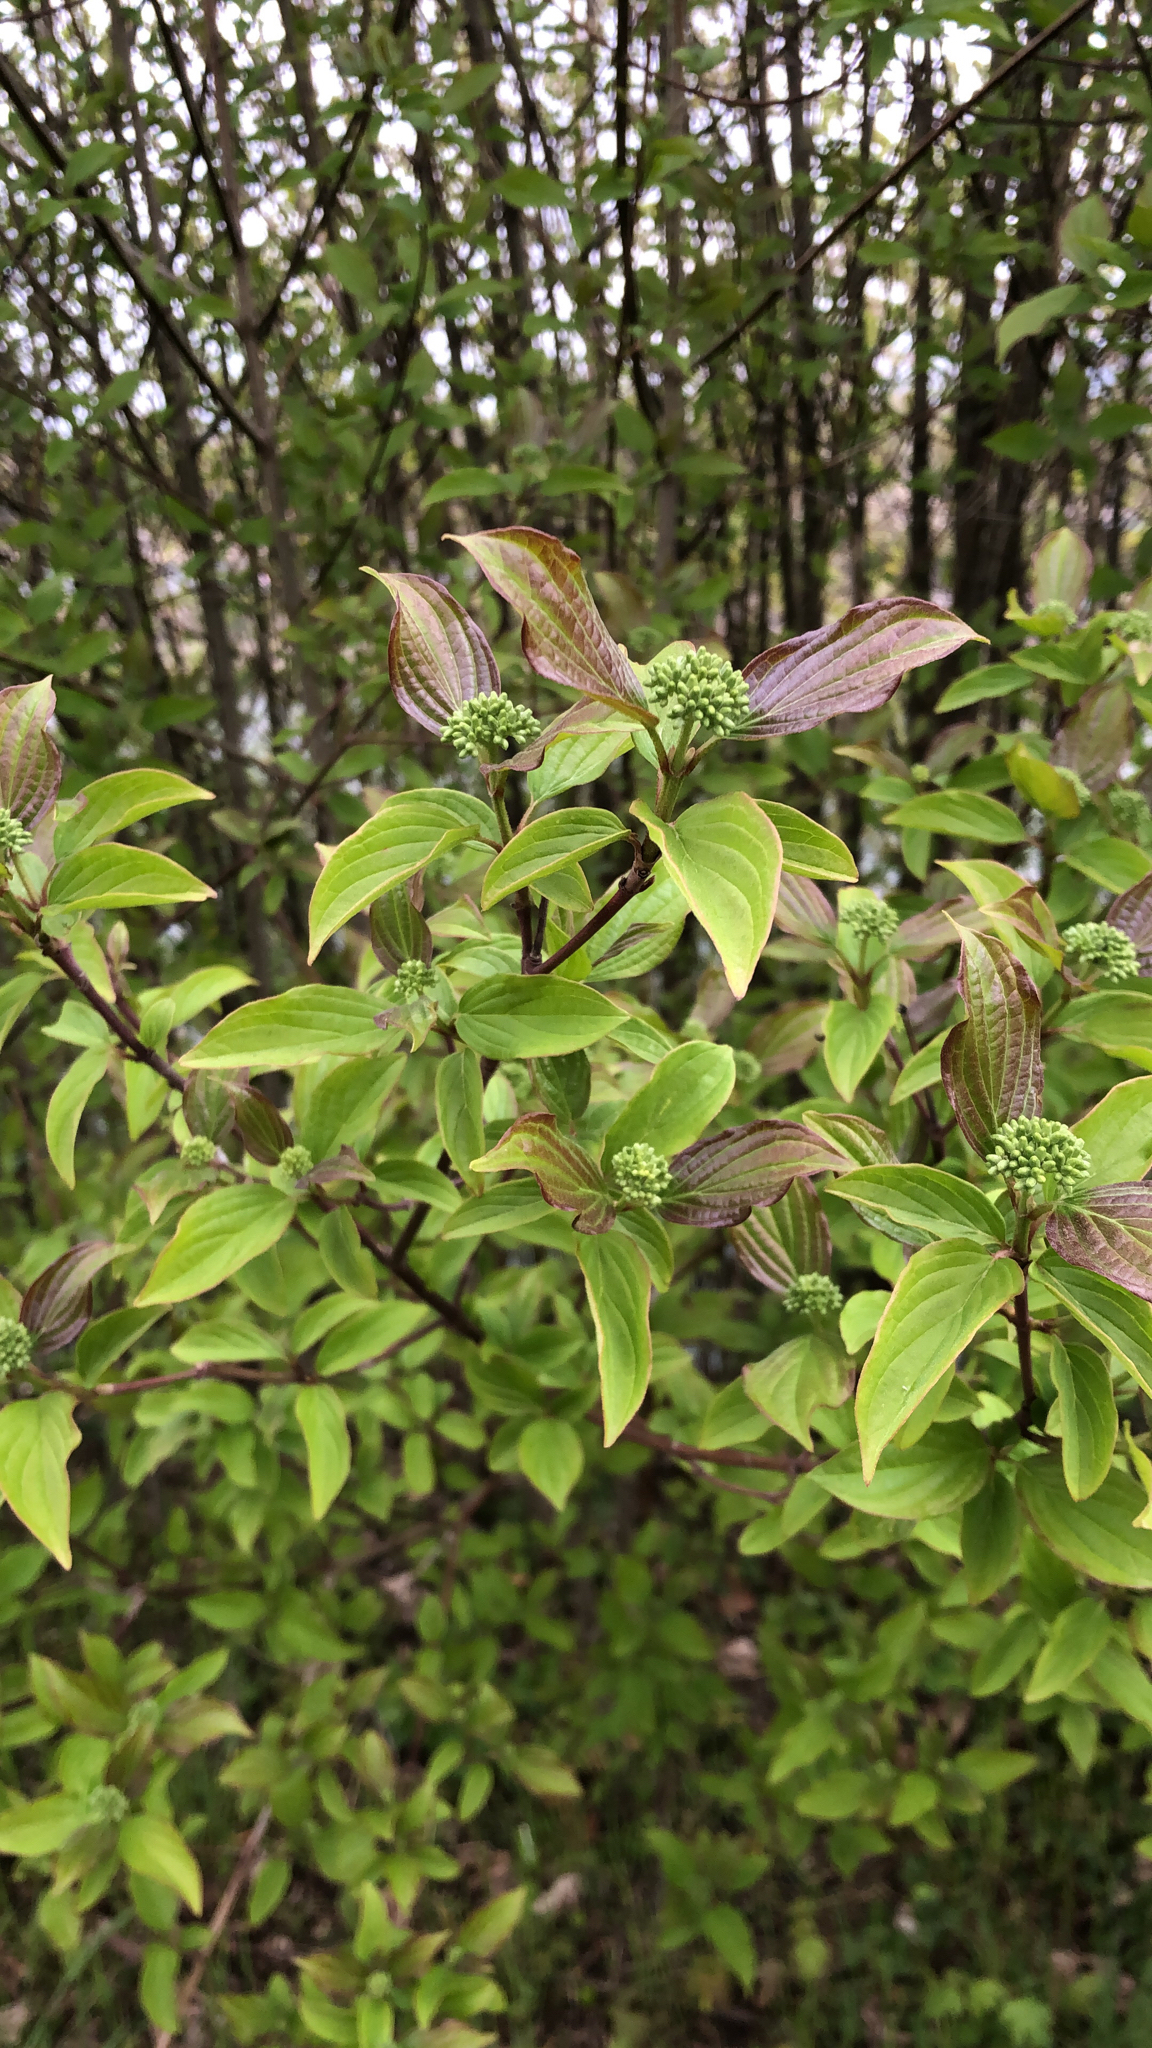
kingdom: Plantae
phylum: Tracheophyta
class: Magnoliopsida
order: Cornales
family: Cornaceae
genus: Cornus
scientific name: Cornus sanguinea
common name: Dogwood
